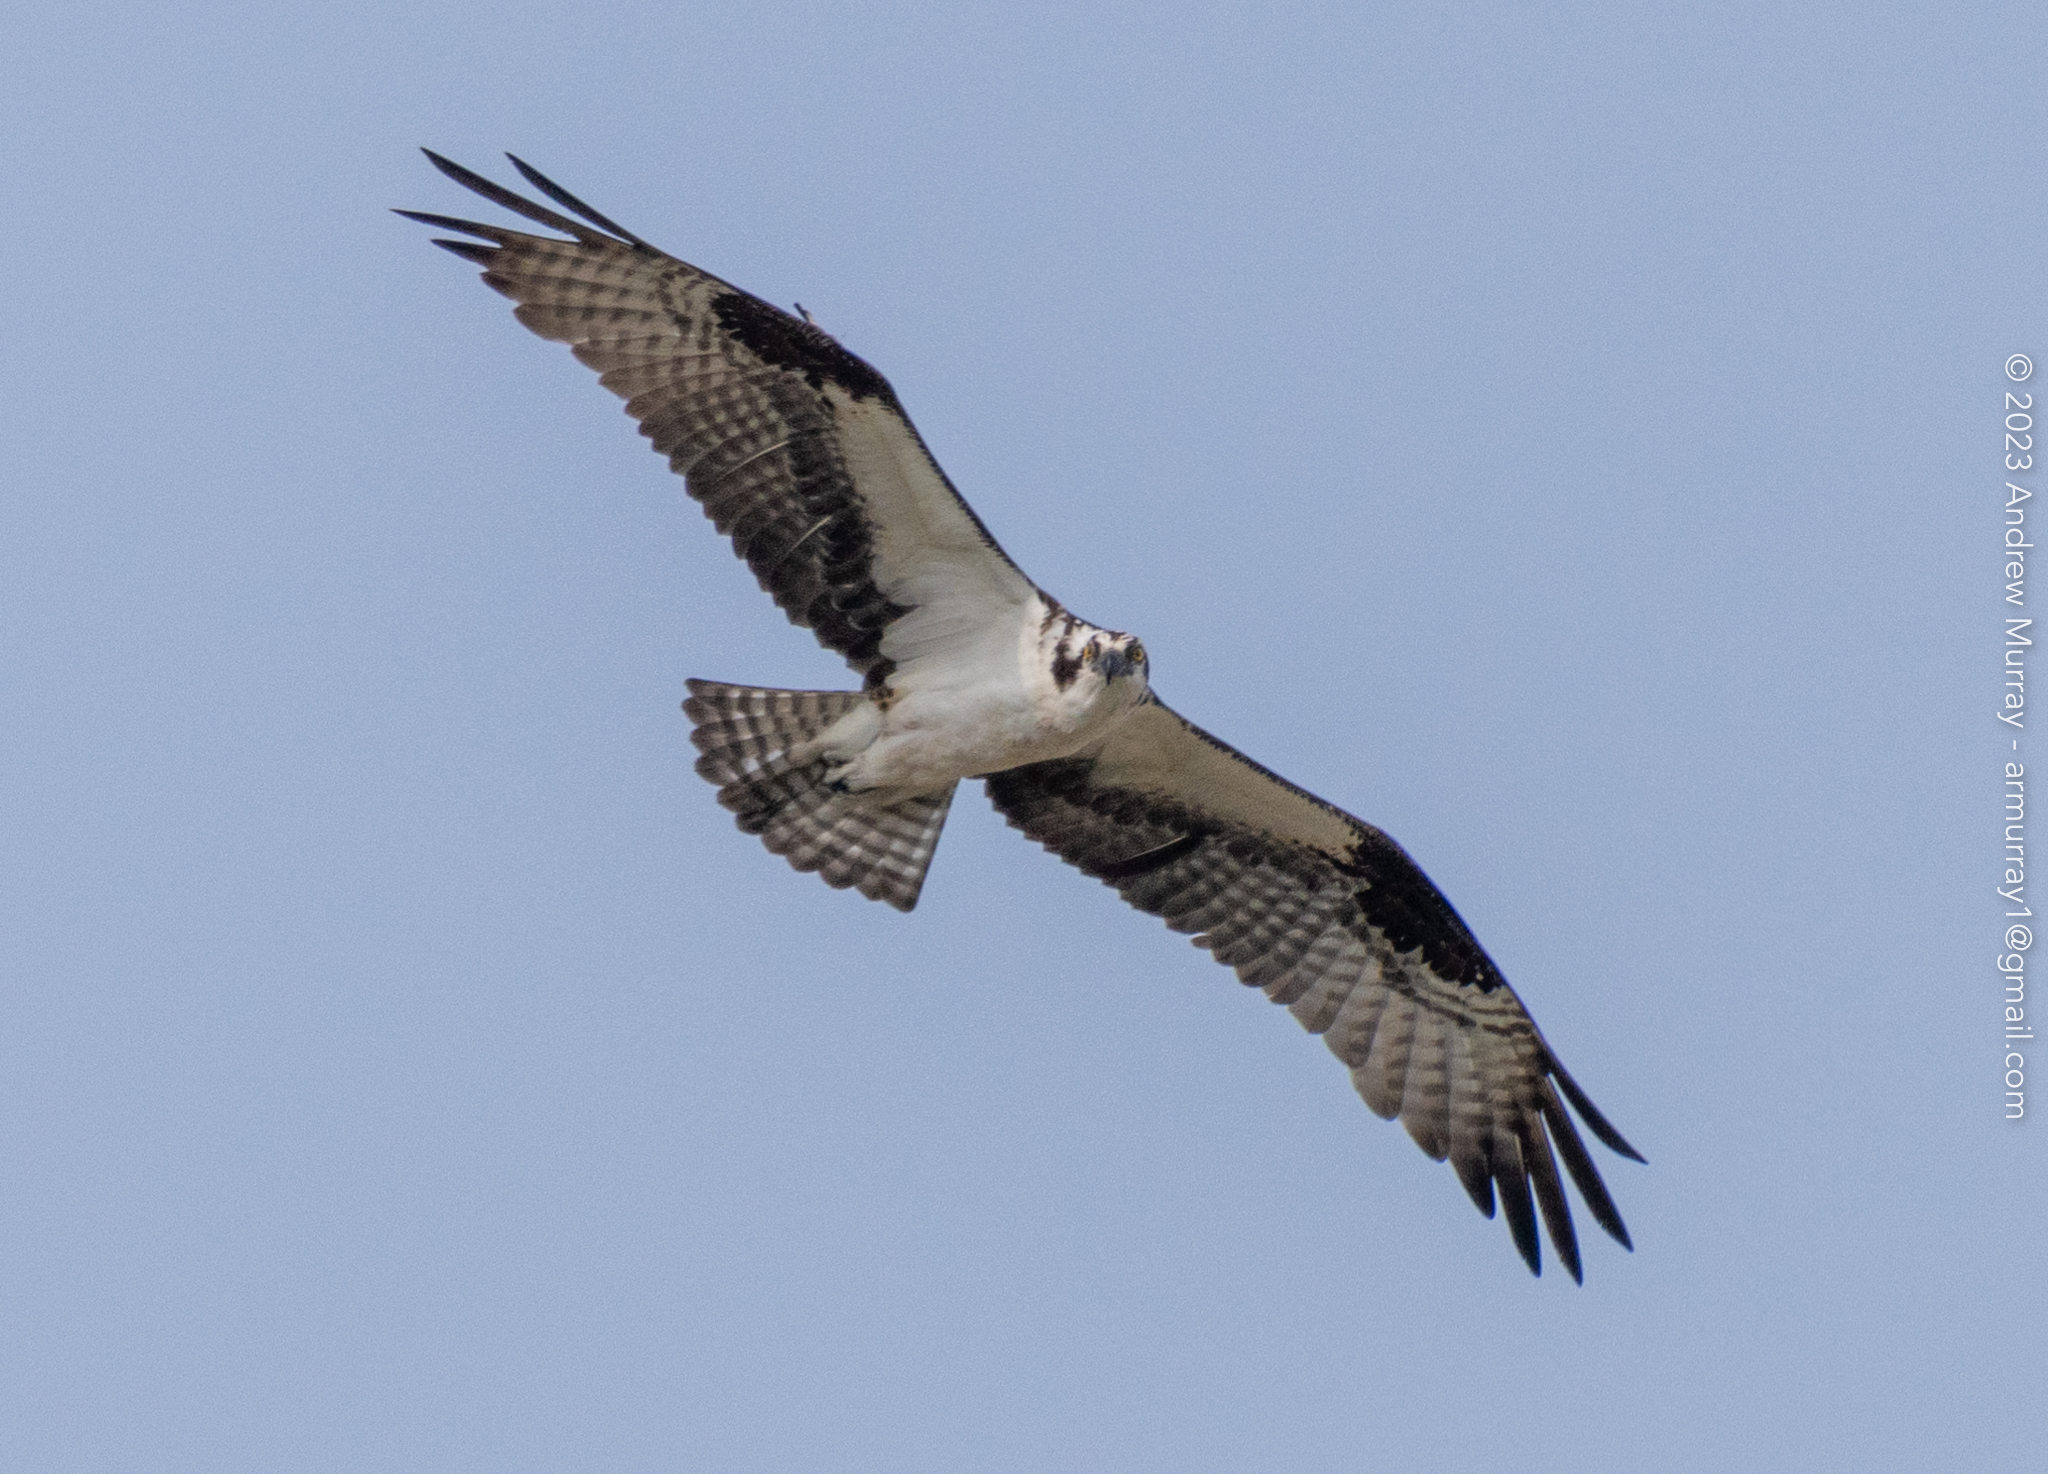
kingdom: Animalia
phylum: Chordata
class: Aves
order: Accipitriformes
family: Pandionidae
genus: Pandion
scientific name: Pandion haliaetus
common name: Osprey
